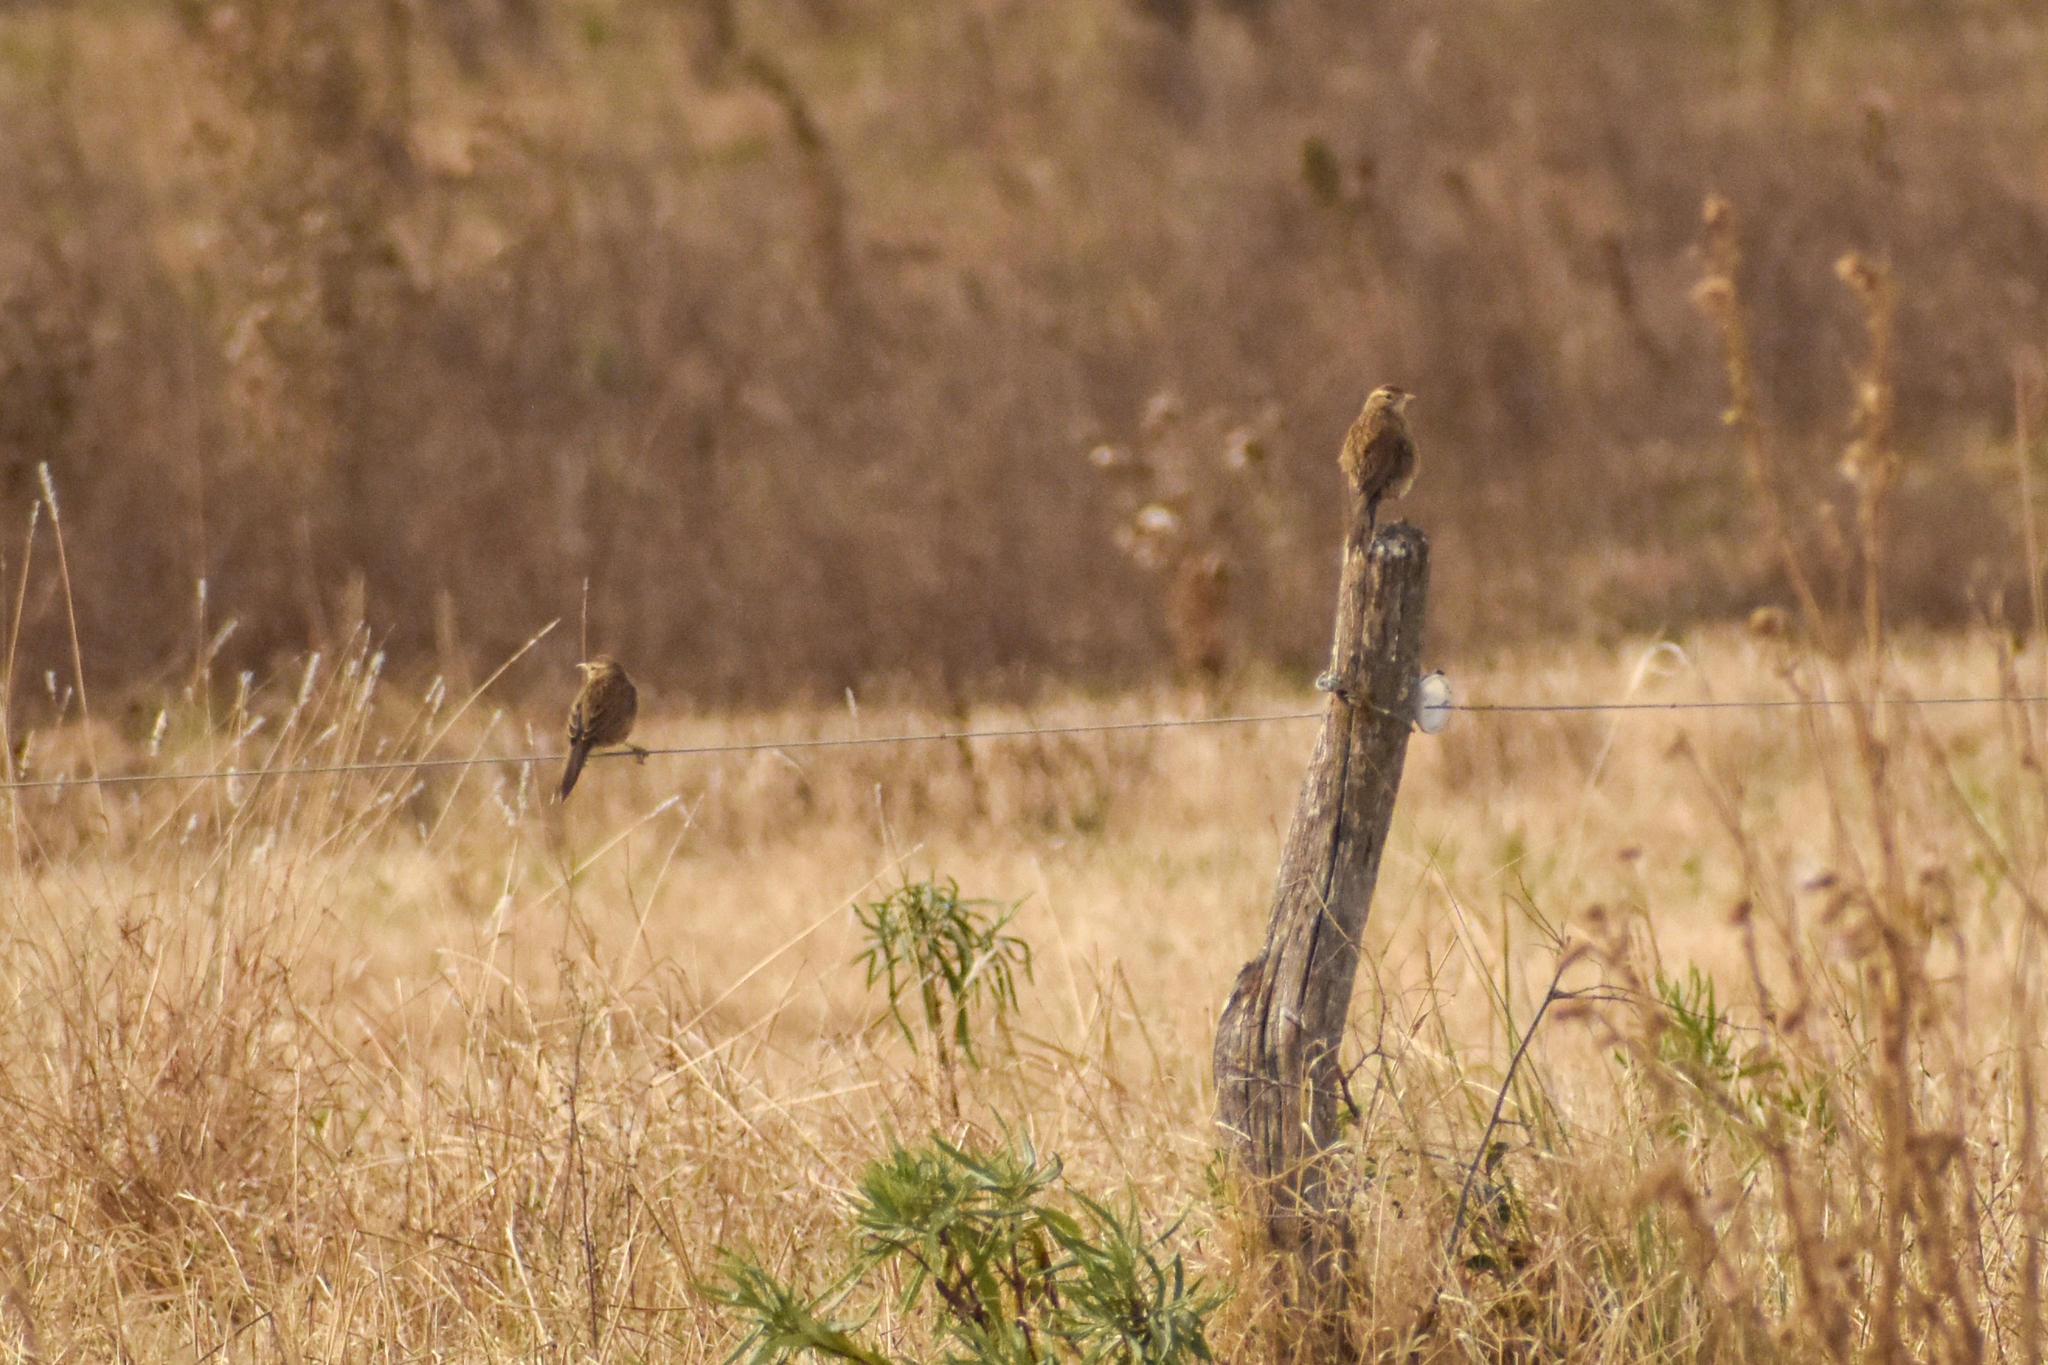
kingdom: Animalia
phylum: Chordata
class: Aves
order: Passeriformes
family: Furnariidae
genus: Anumbius
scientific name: Anumbius annumbi
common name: Firewood-gatherer
